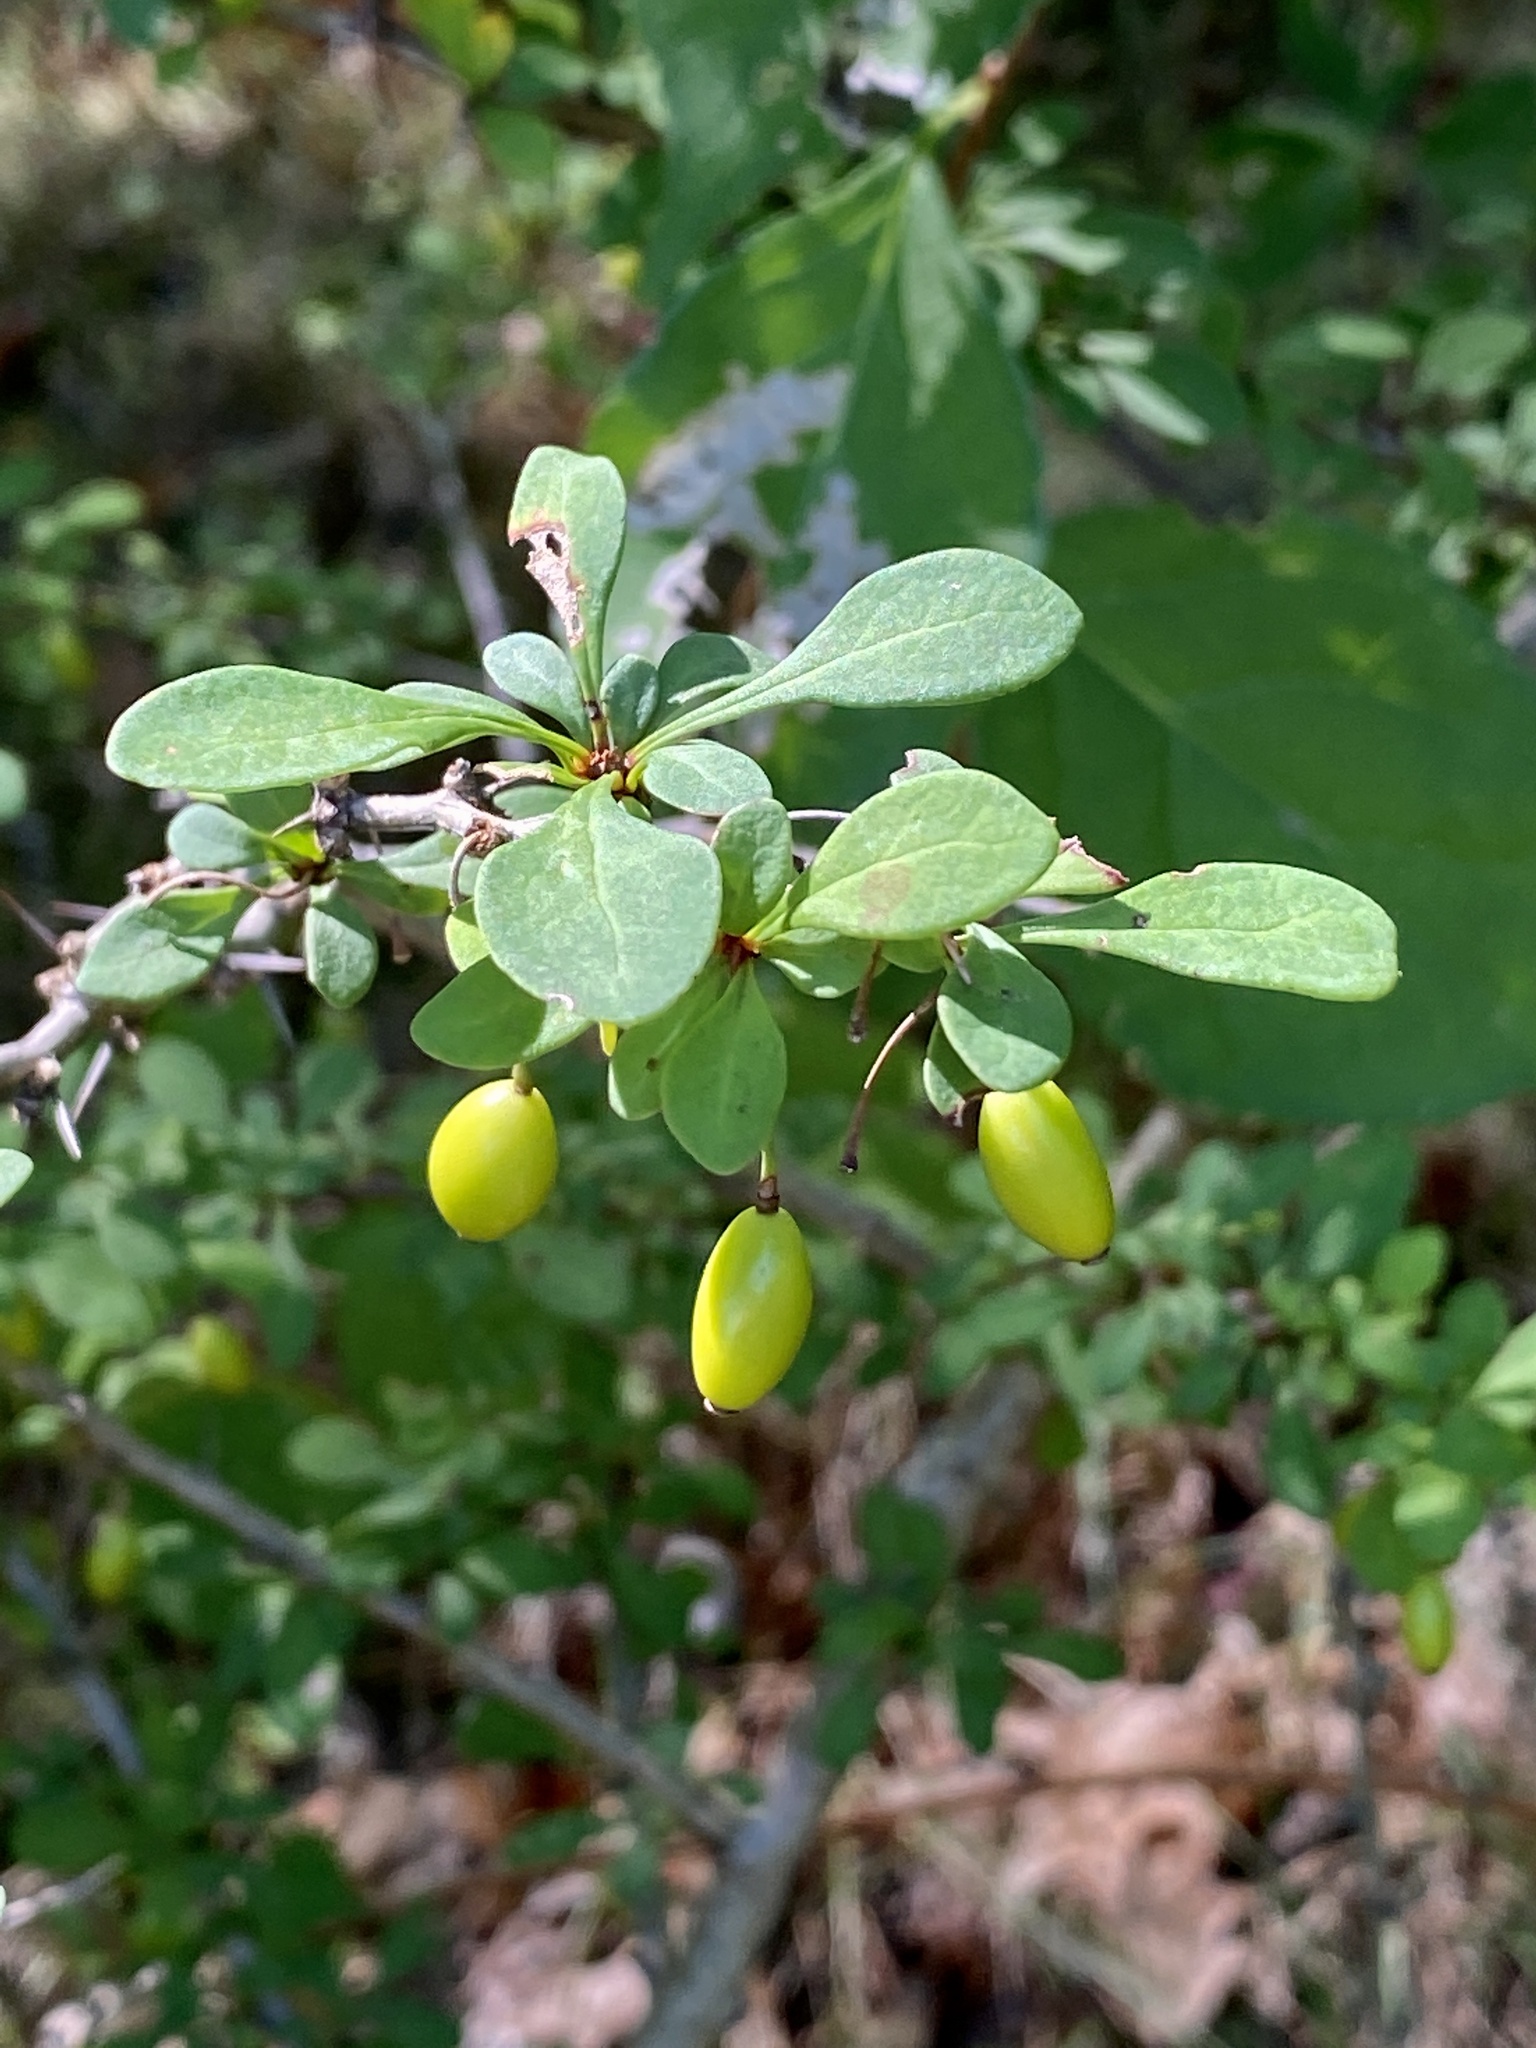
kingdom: Plantae
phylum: Tracheophyta
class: Magnoliopsida
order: Ranunculales
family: Berberidaceae
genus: Berberis
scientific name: Berberis thunbergii
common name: Japanese barberry
